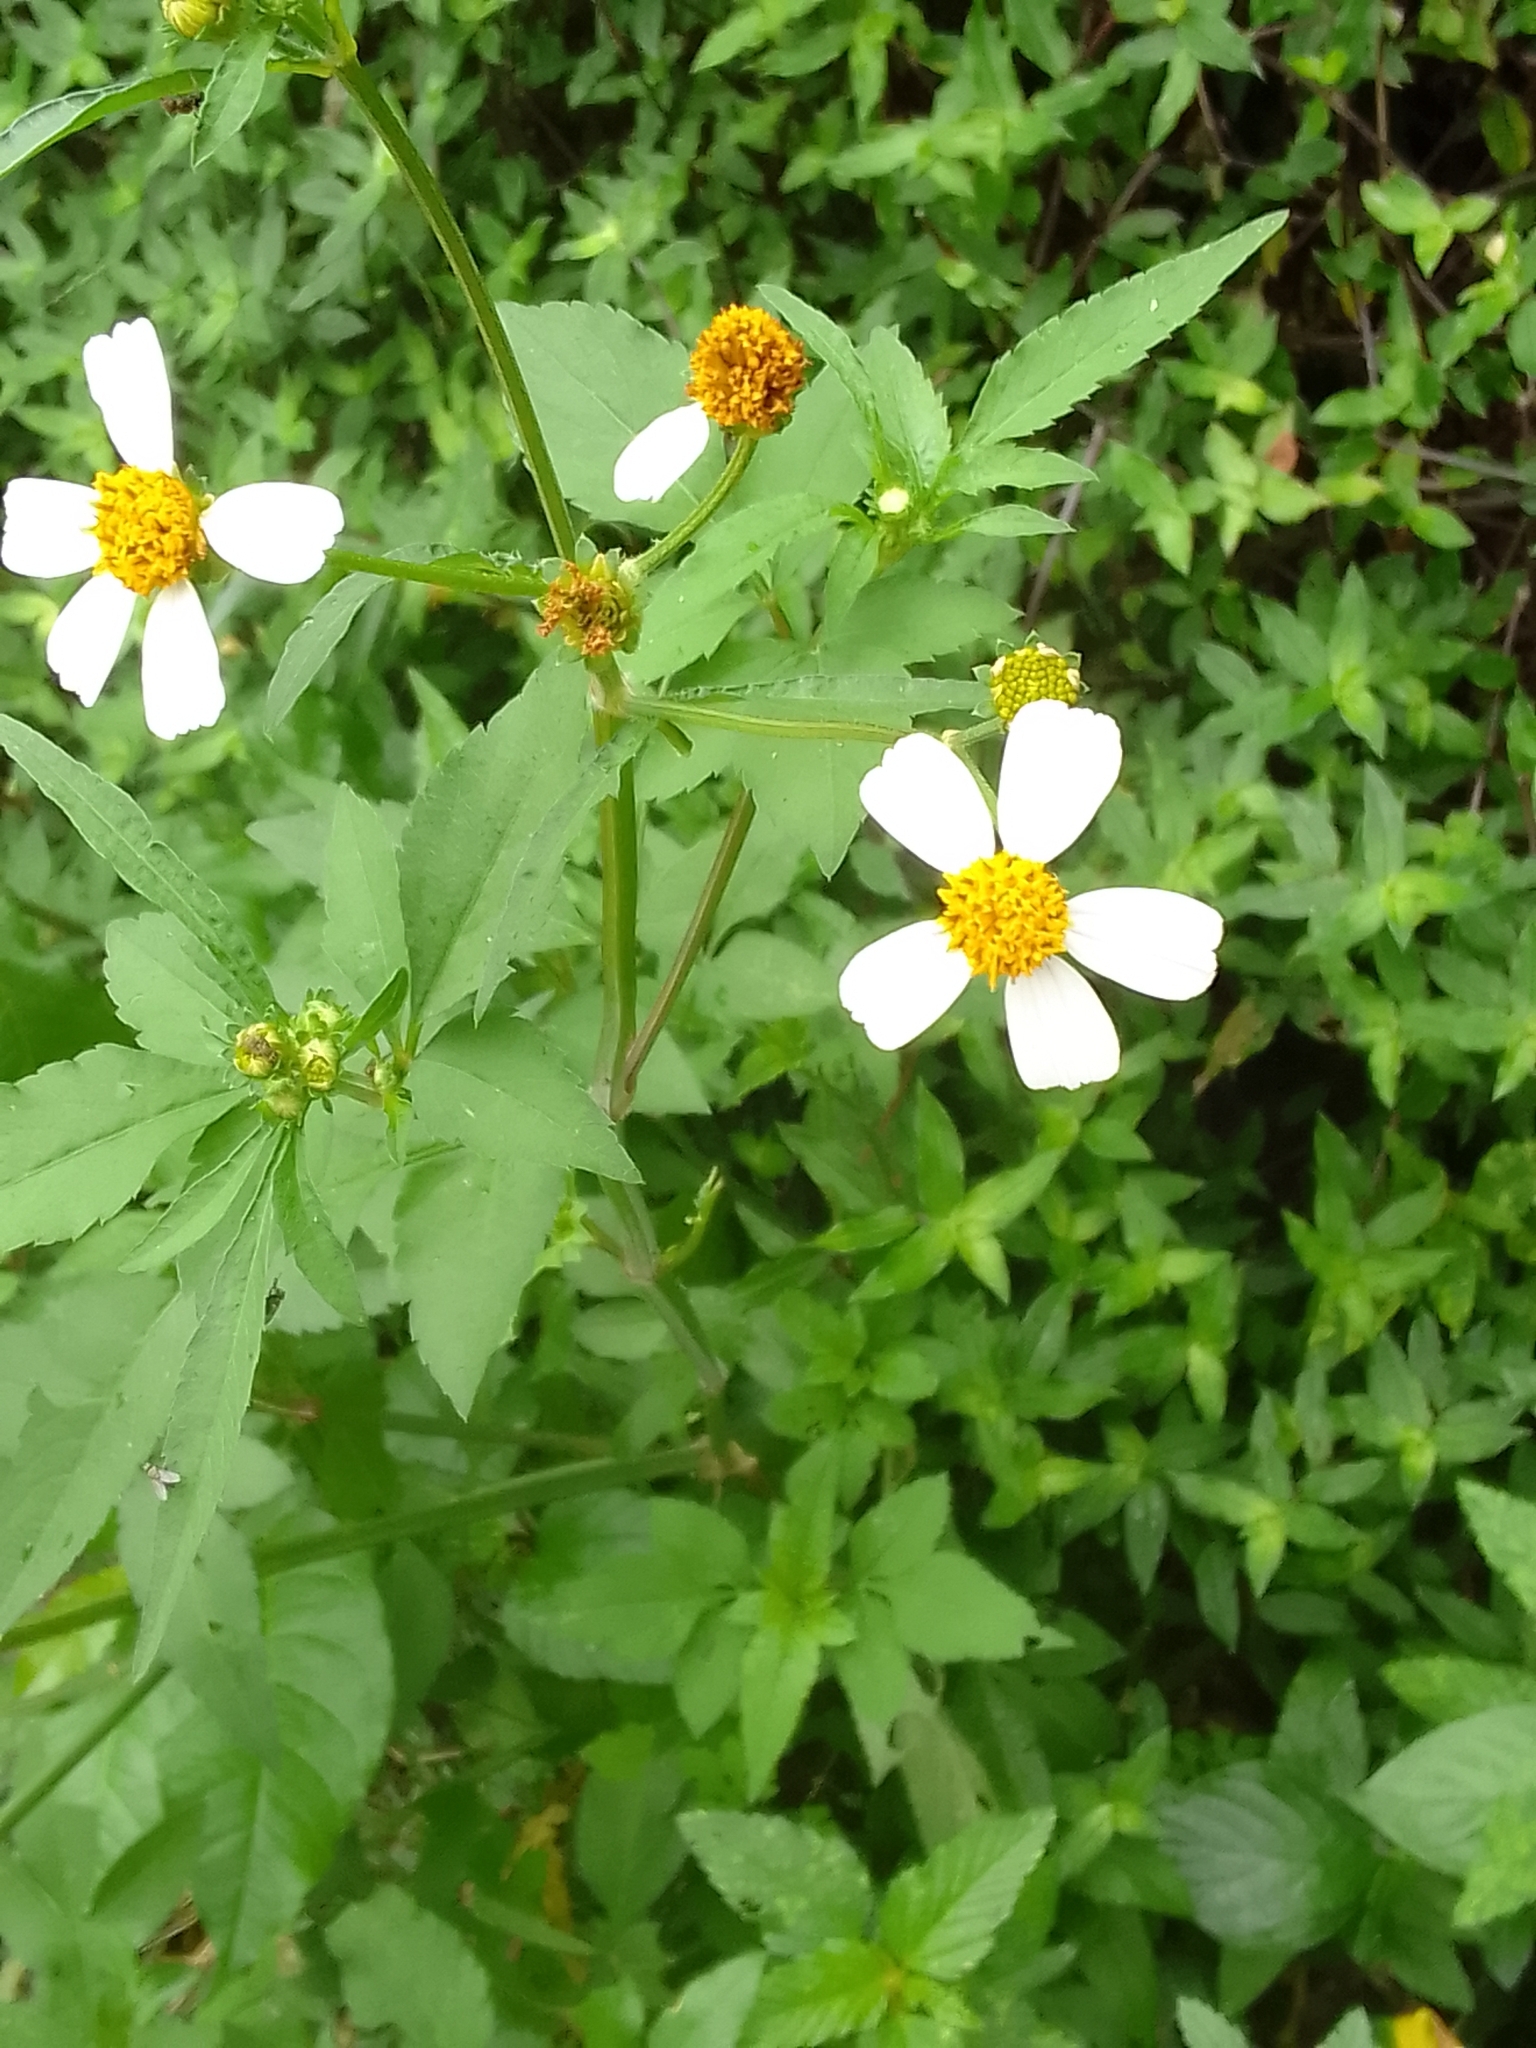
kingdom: Plantae
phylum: Tracheophyta
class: Magnoliopsida
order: Asterales
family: Asteraceae
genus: Bidens
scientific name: Bidens alba
